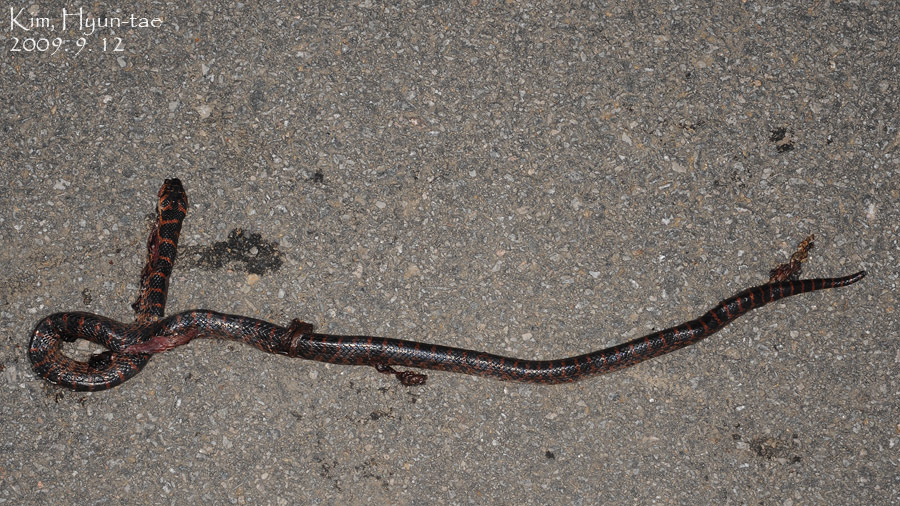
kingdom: Animalia
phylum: Chordata
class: Squamata
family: Colubridae
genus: Lycodon
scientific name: Lycodon rufozonatus
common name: Red-banded snake
